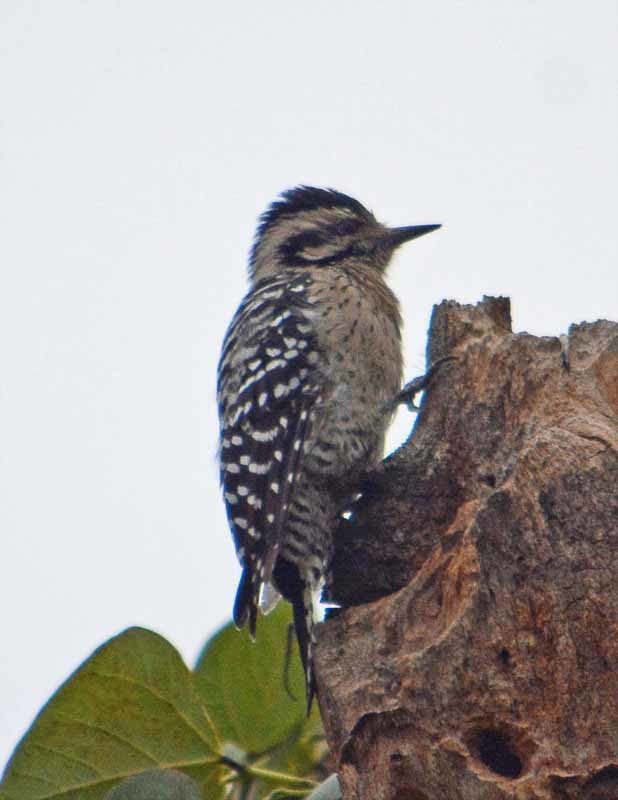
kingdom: Animalia
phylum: Chordata
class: Aves
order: Piciformes
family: Picidae
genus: Dryobates
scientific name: Dryobates scalaris
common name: Ladder-backed woodpecker
